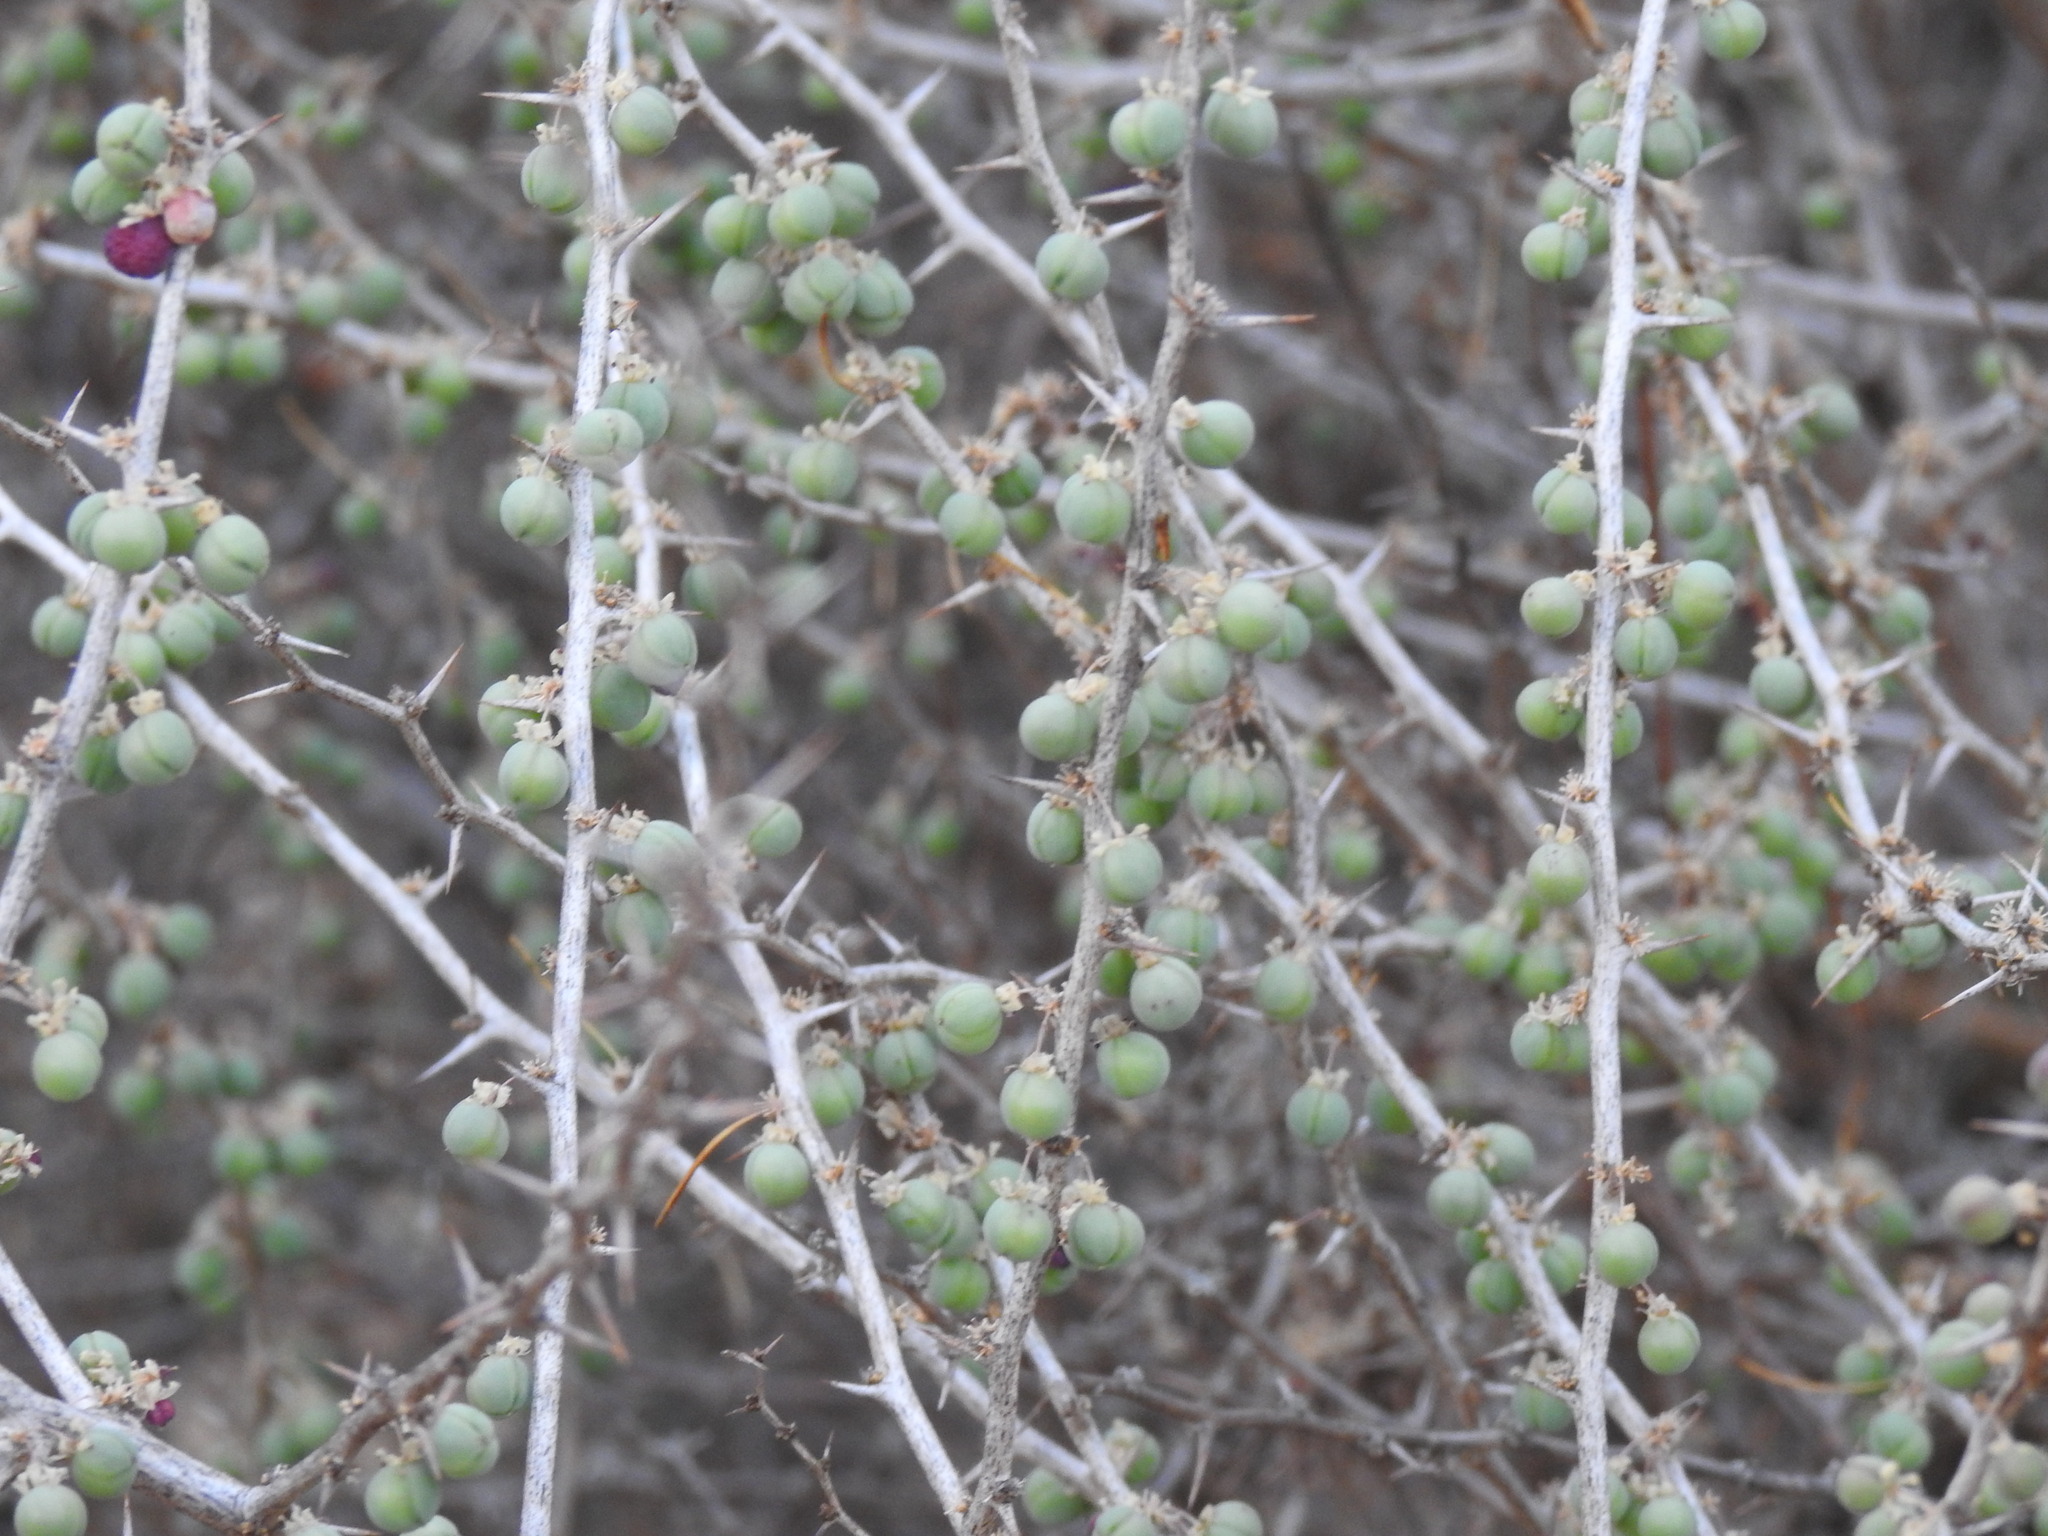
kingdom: Plantae
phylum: Tracheophyta
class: Liliopsida
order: Asparagales
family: Asparagaceae
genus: Asparagus
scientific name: Asparagus albus
